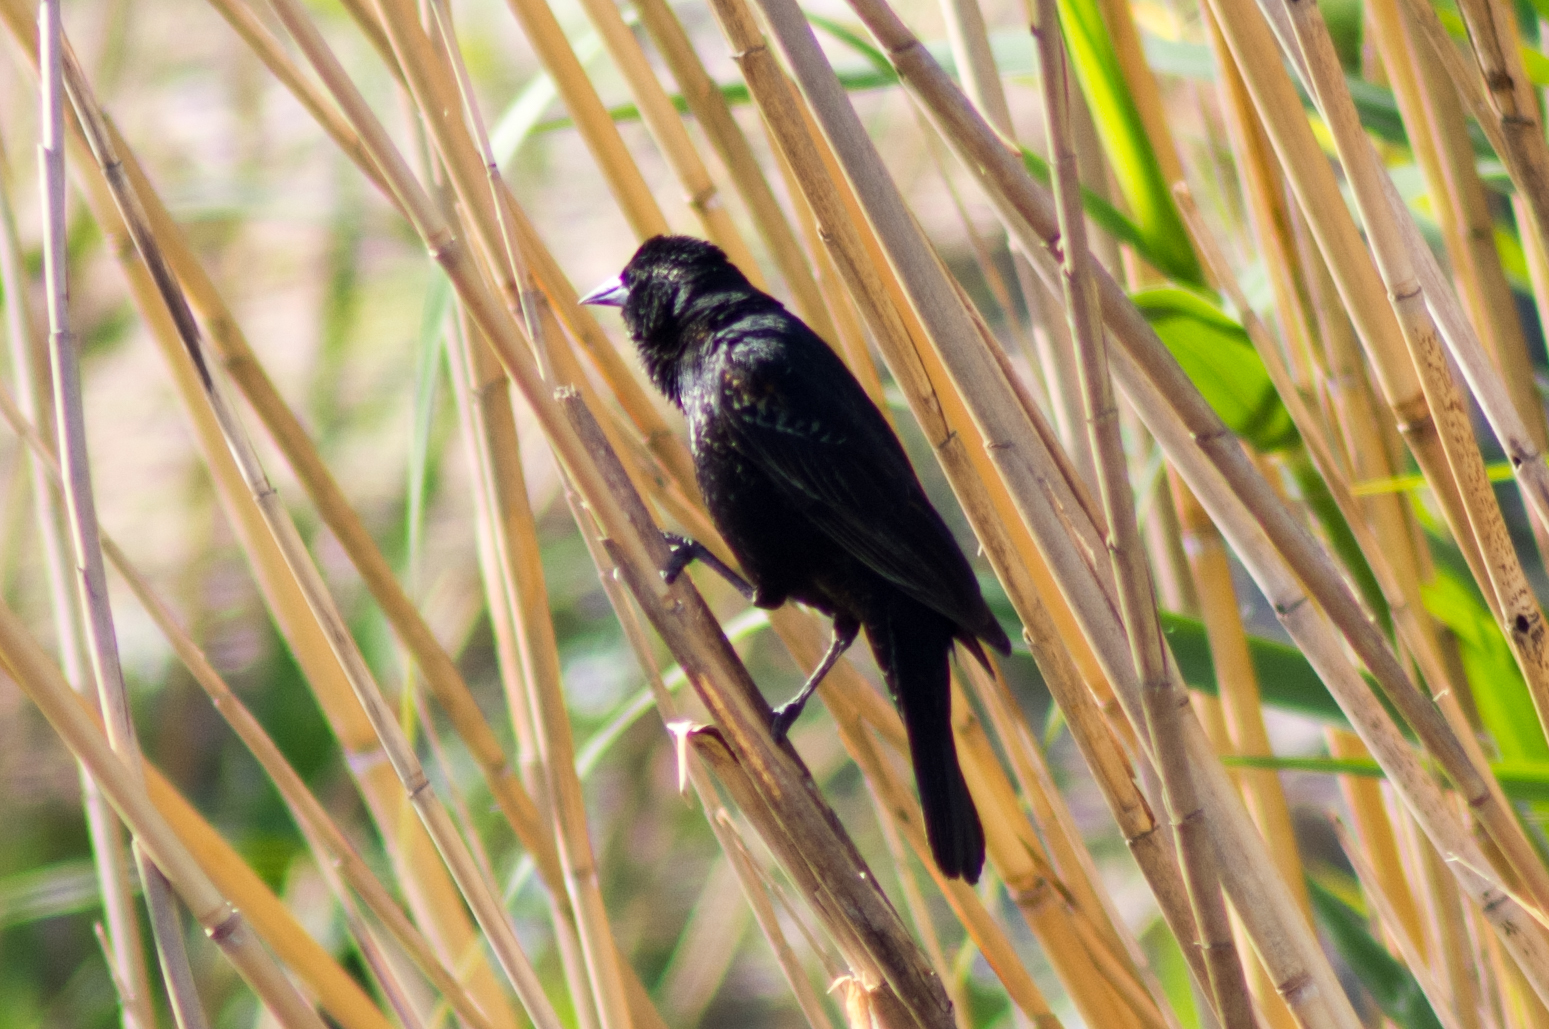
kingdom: Animalia
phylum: Chordata
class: Aves
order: Passeriformes
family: Icteridae
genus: Agelaius
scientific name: Agelaius phoeniceus
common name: Red-winged blackbird
